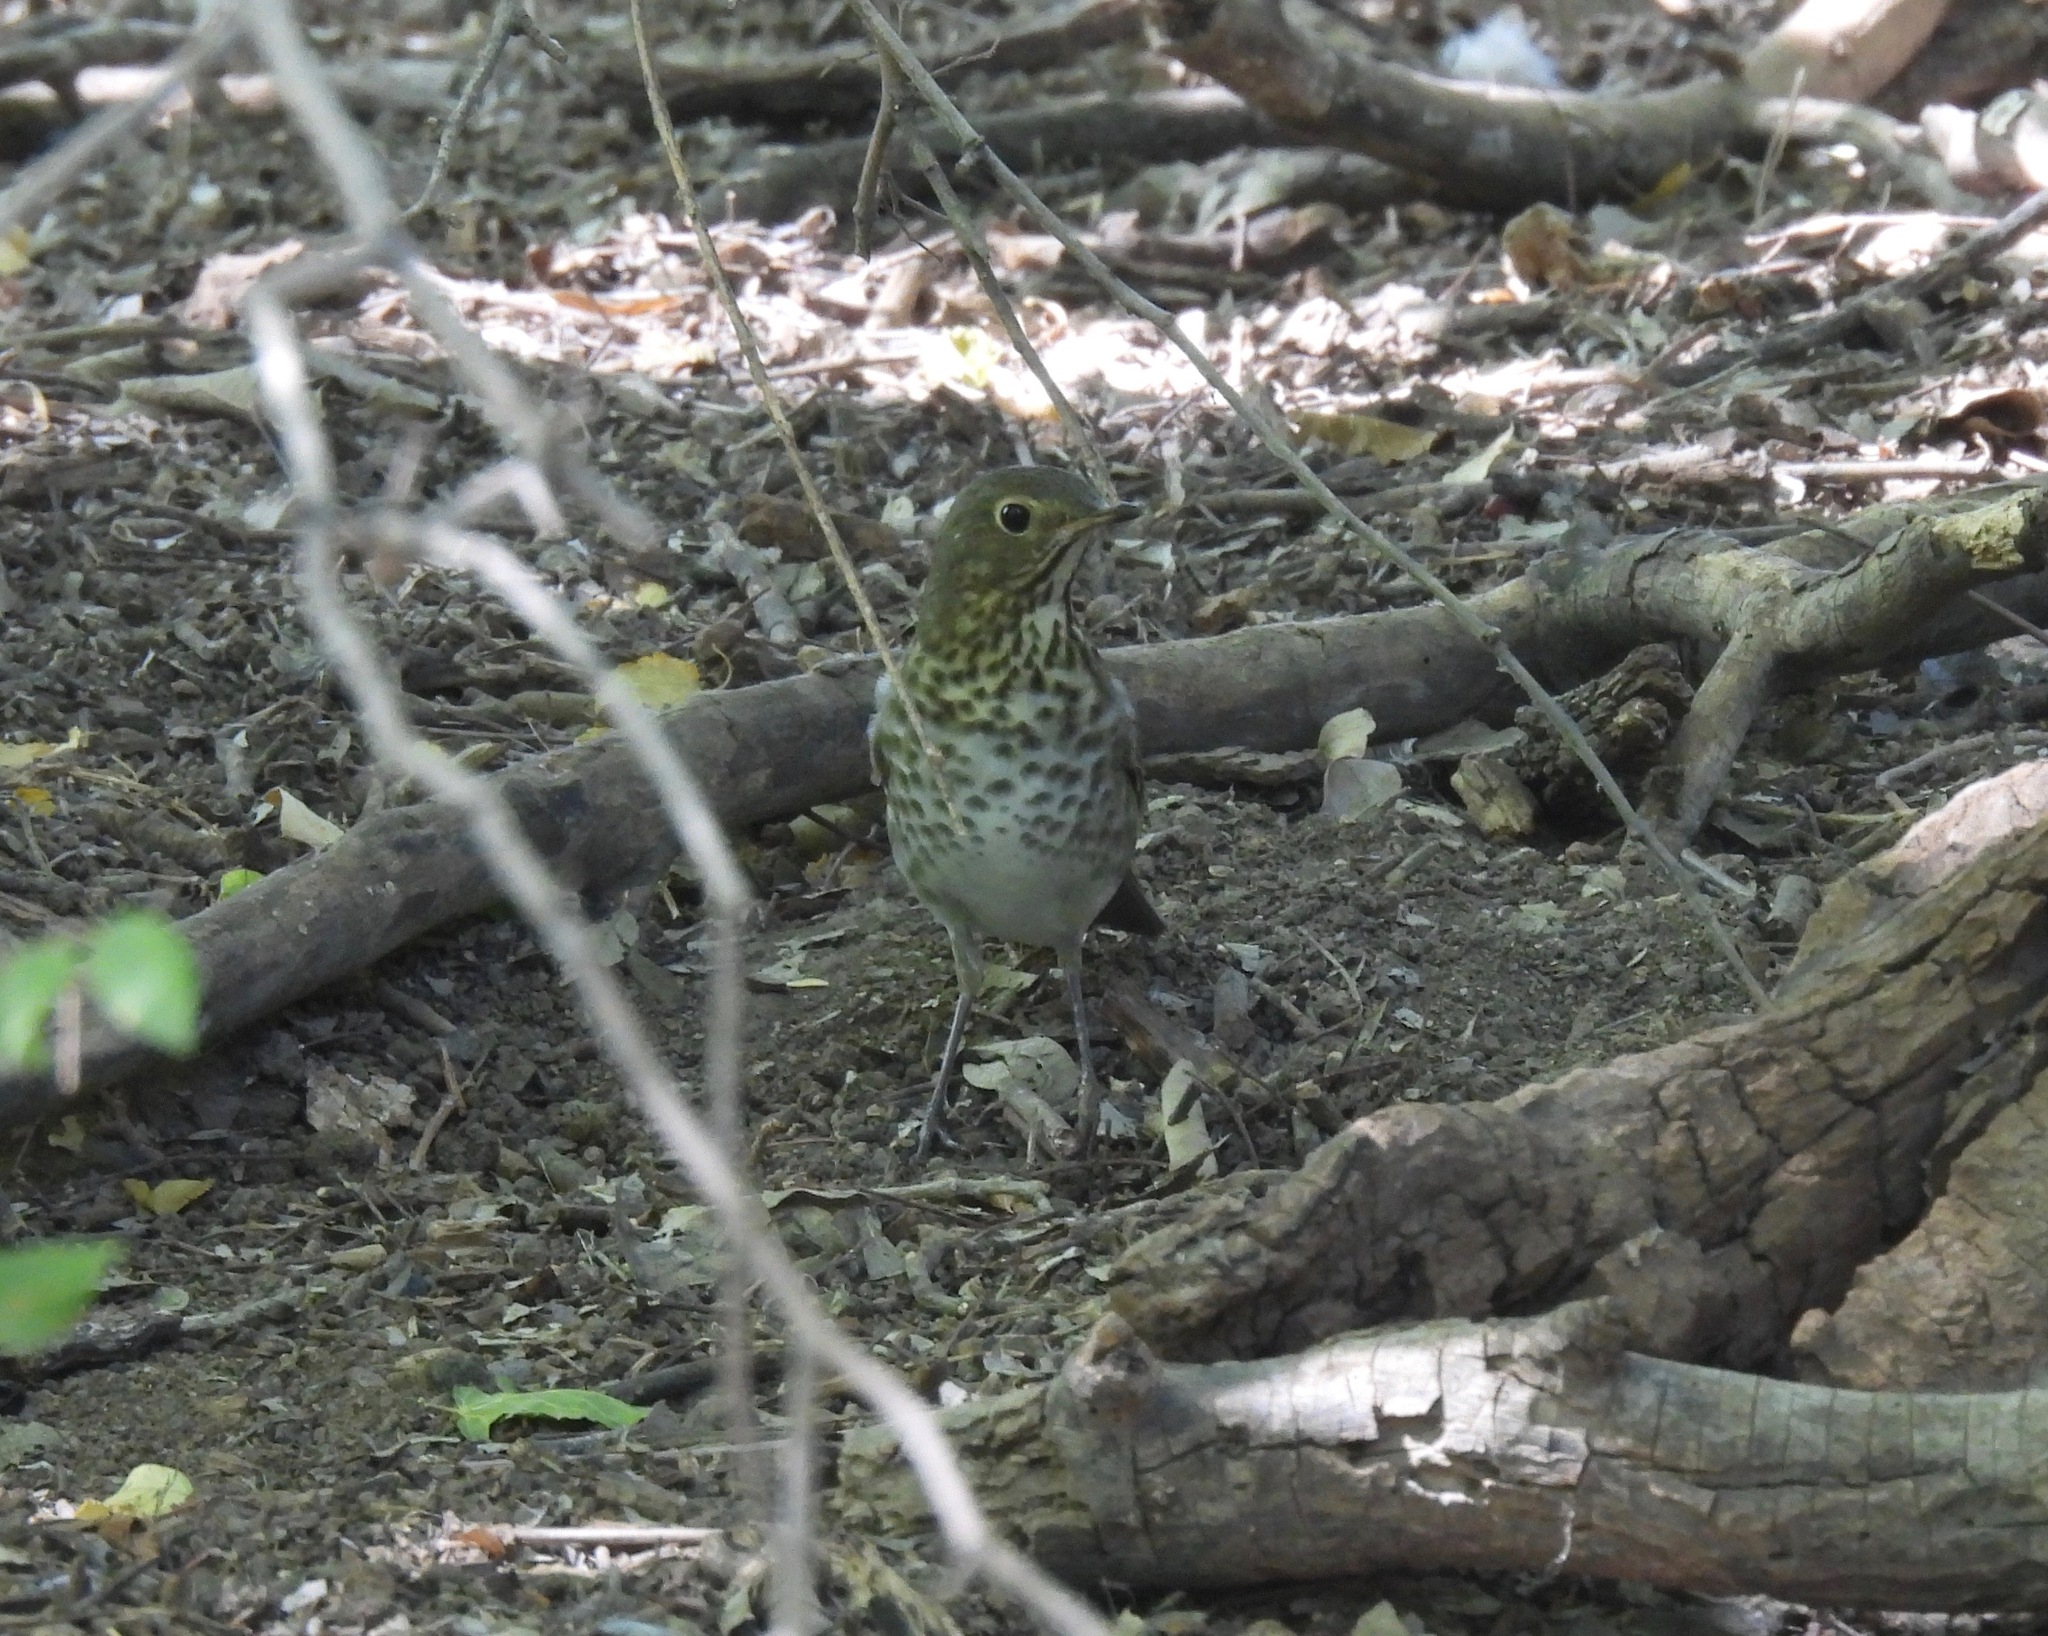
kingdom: Animalia
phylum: Chordata
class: Aves
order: Passeriformes
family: Turdidae
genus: Catharus
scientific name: Catharus ustulatus
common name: Swainson's thrush
